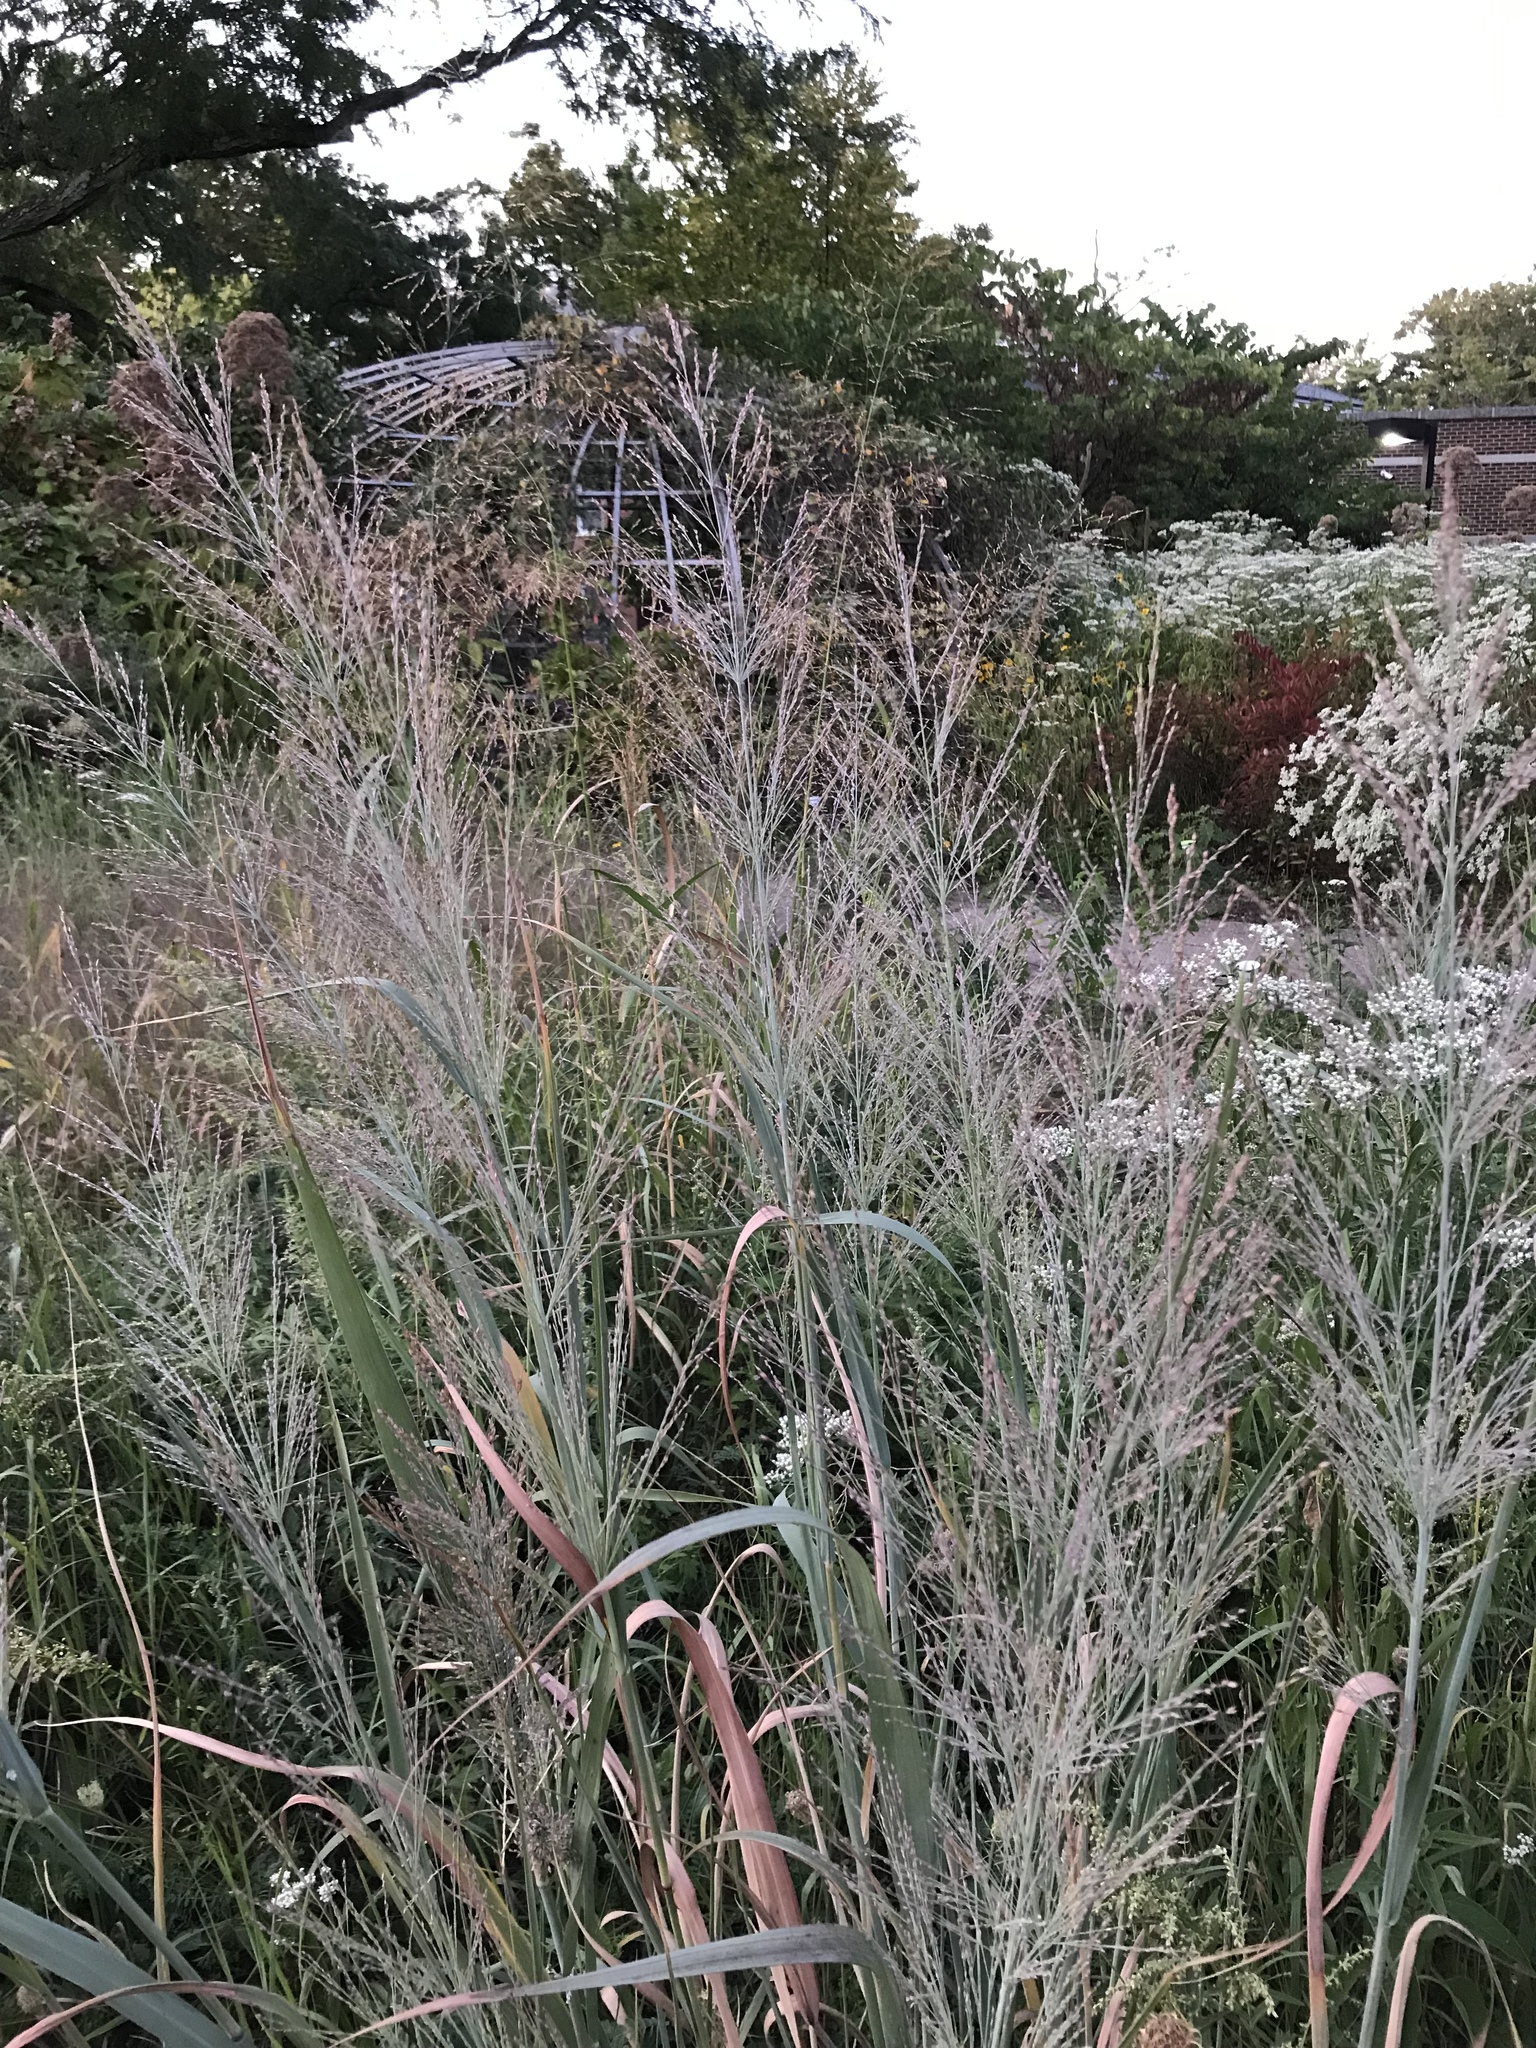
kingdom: Plantae
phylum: Tracheophyta
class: Liliopsida
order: Poales
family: Poaceae
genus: Panicum
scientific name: Panicum virgatum
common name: Switchgrass
